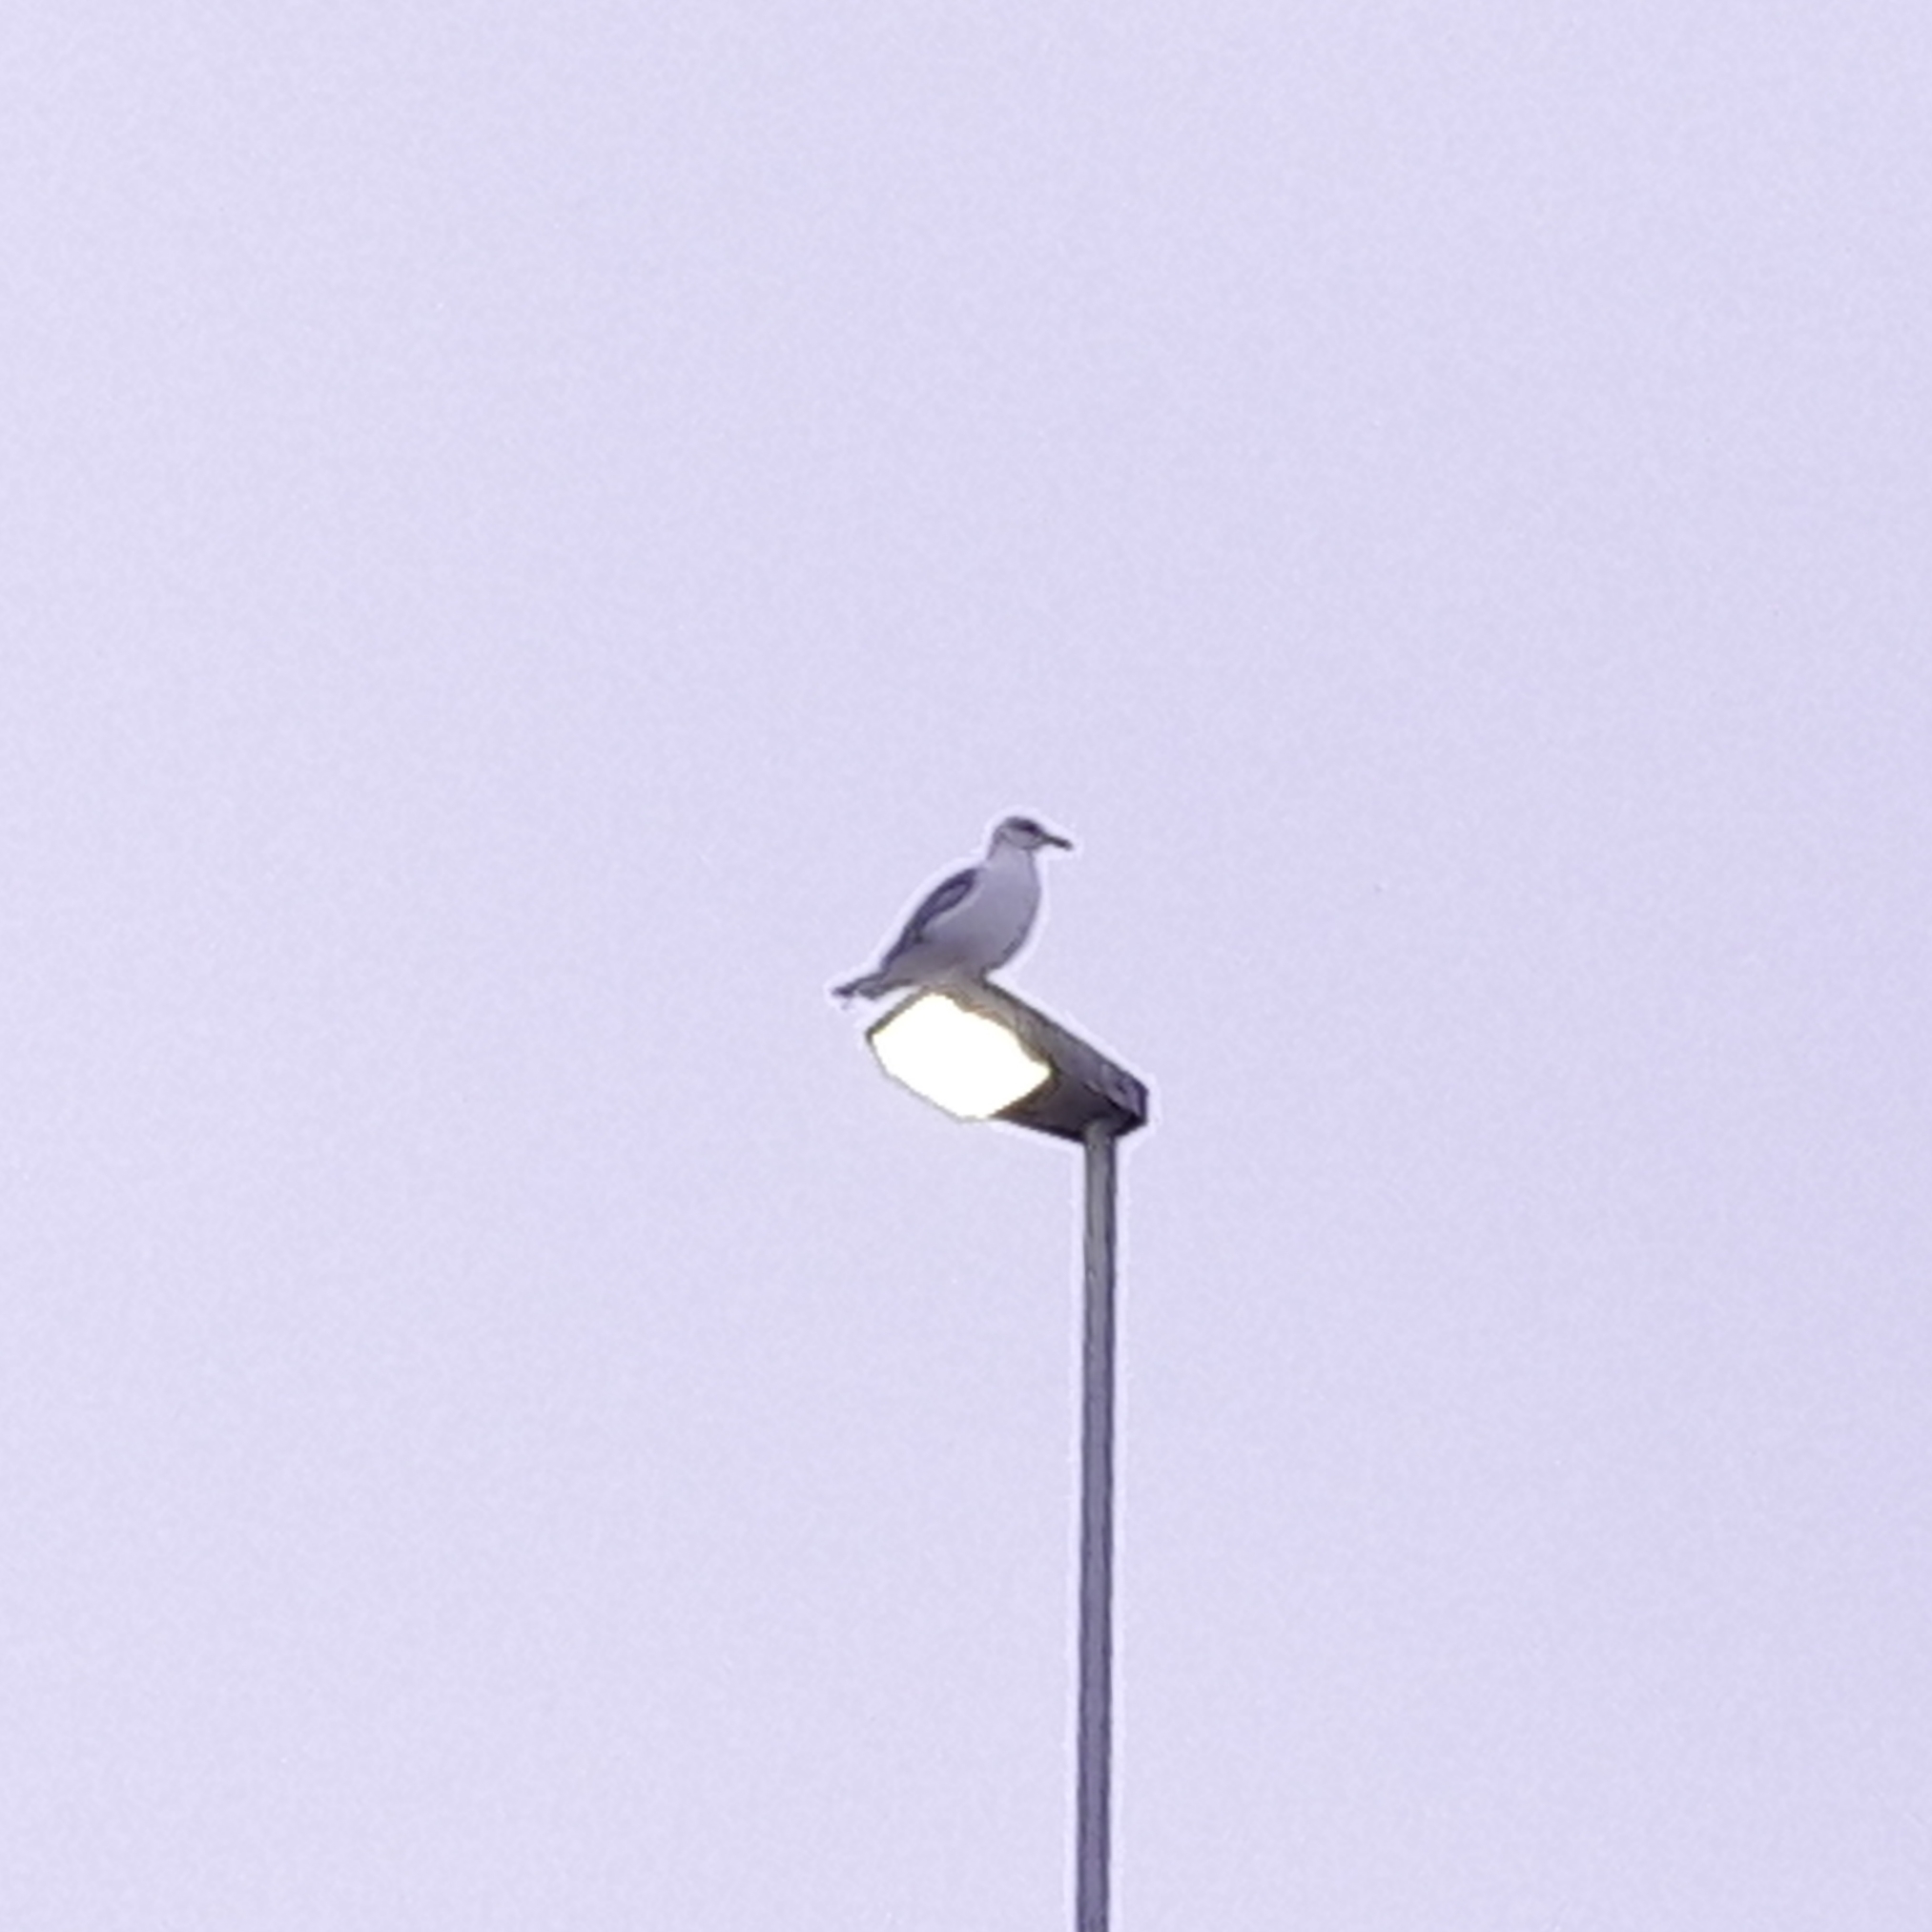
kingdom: Animalia
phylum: Chordata
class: Aves
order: Charadriiformes
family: Laridae
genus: Larus
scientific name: Larus argentatus
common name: Herring gull
